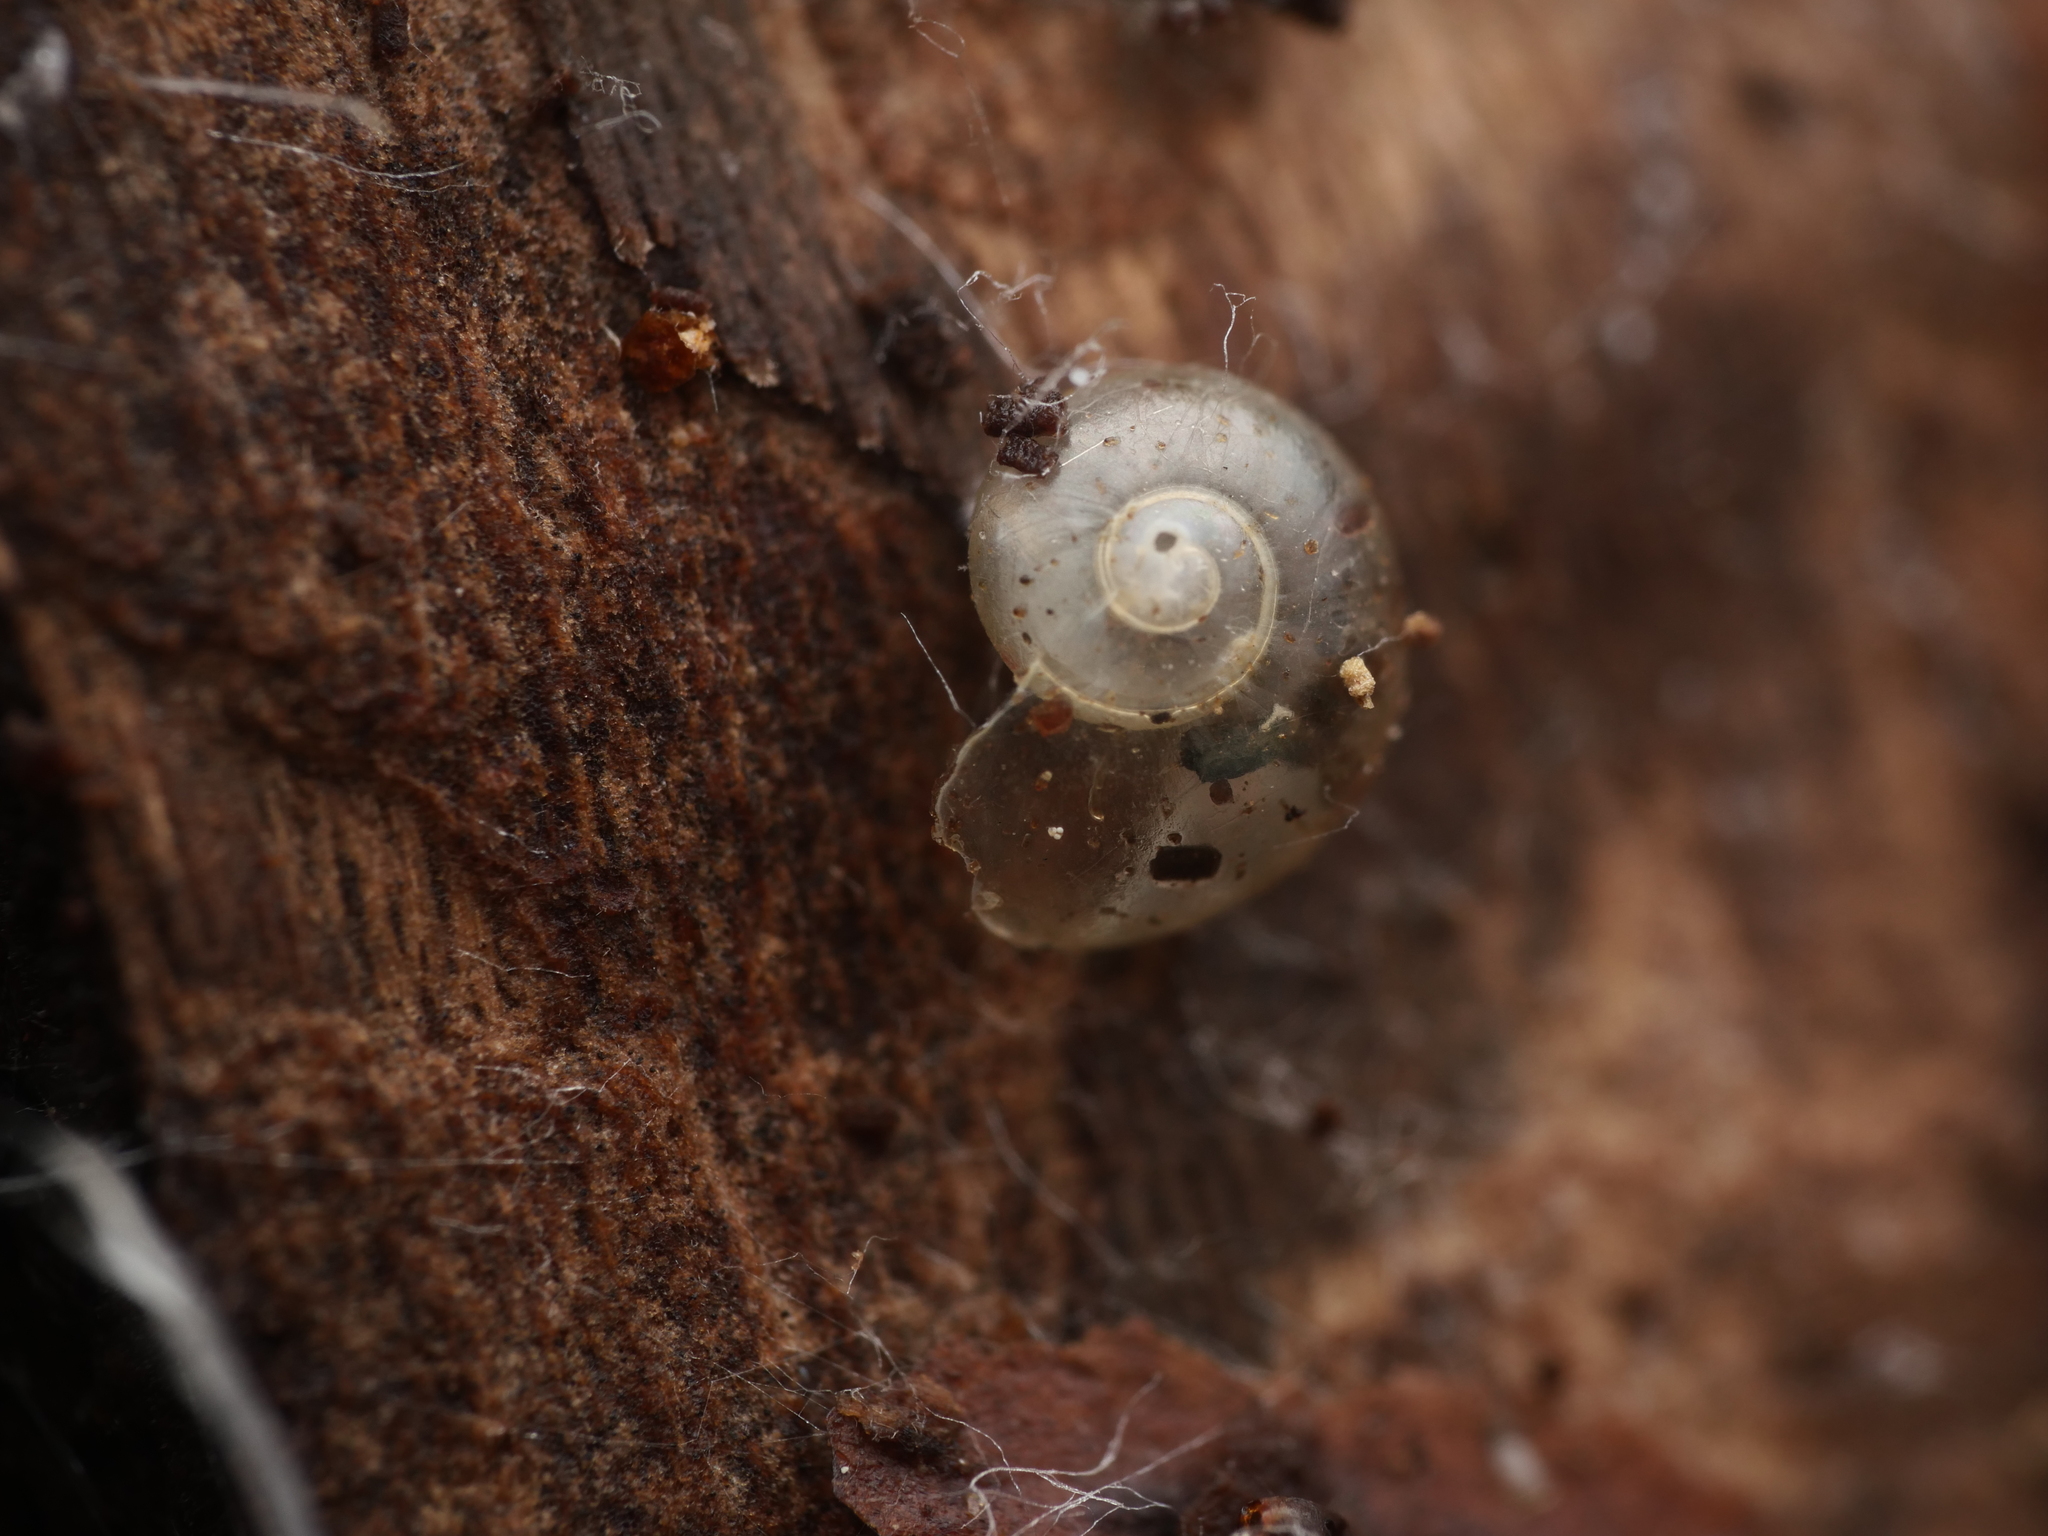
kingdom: Animalia
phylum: Mollusca
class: Gastropoda
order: Stylommatophora
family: Vitrinidae
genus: Vitrina
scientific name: Vitrina pellucida
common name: Pellucid glass snail
